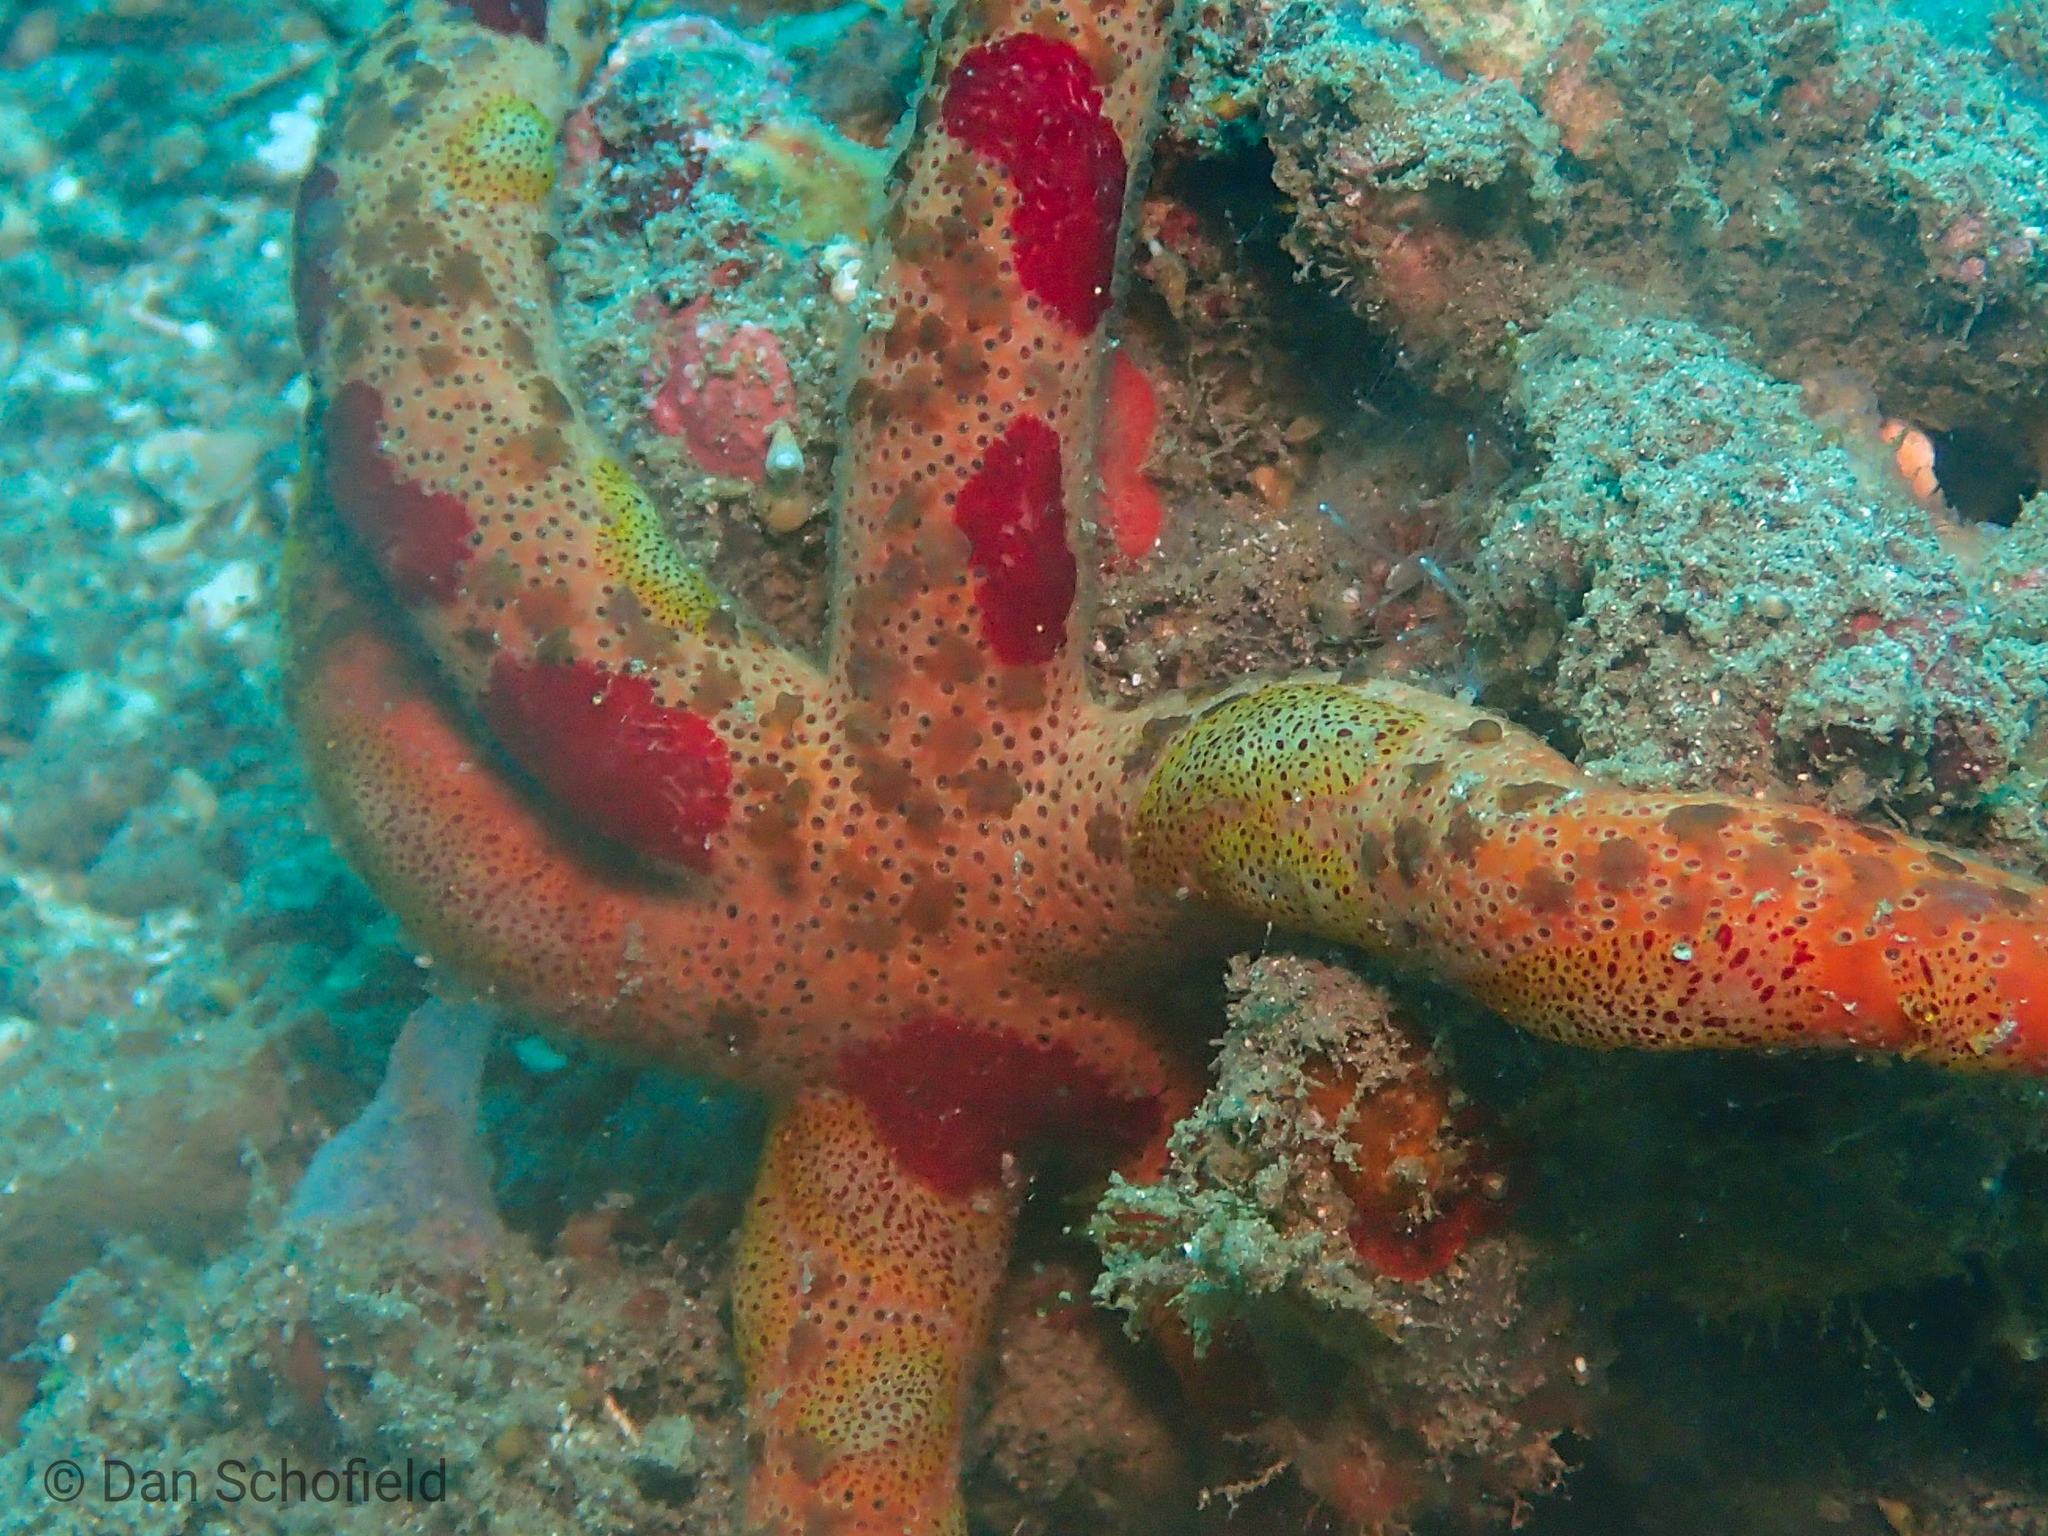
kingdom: Animalia
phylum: Echinodermata
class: Asteroidea
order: Spinulosida
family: Echinasteridae
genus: Echinaster
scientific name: Echinaster luzonicus
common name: Luzon seastar
